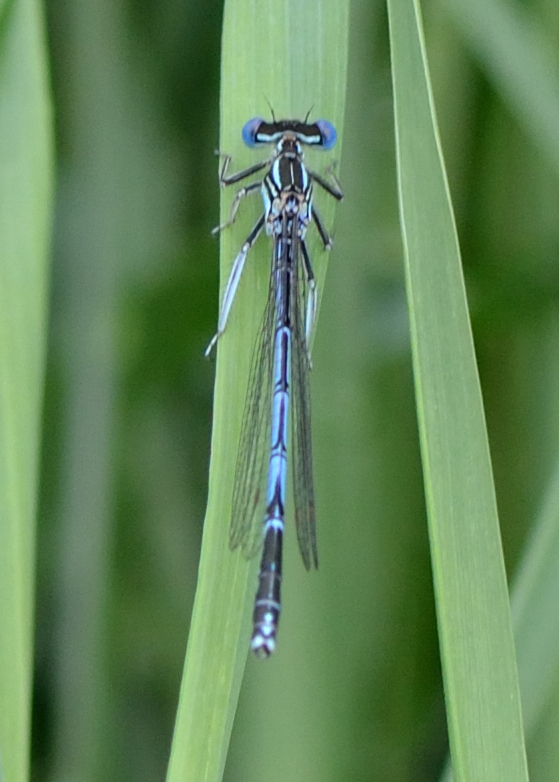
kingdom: Animalia
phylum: Arthropoda
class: Insecta
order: Odonata
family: Platycnemididae
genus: Platycnemis
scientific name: Platycnemis pennipes
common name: White-legged damselfly
